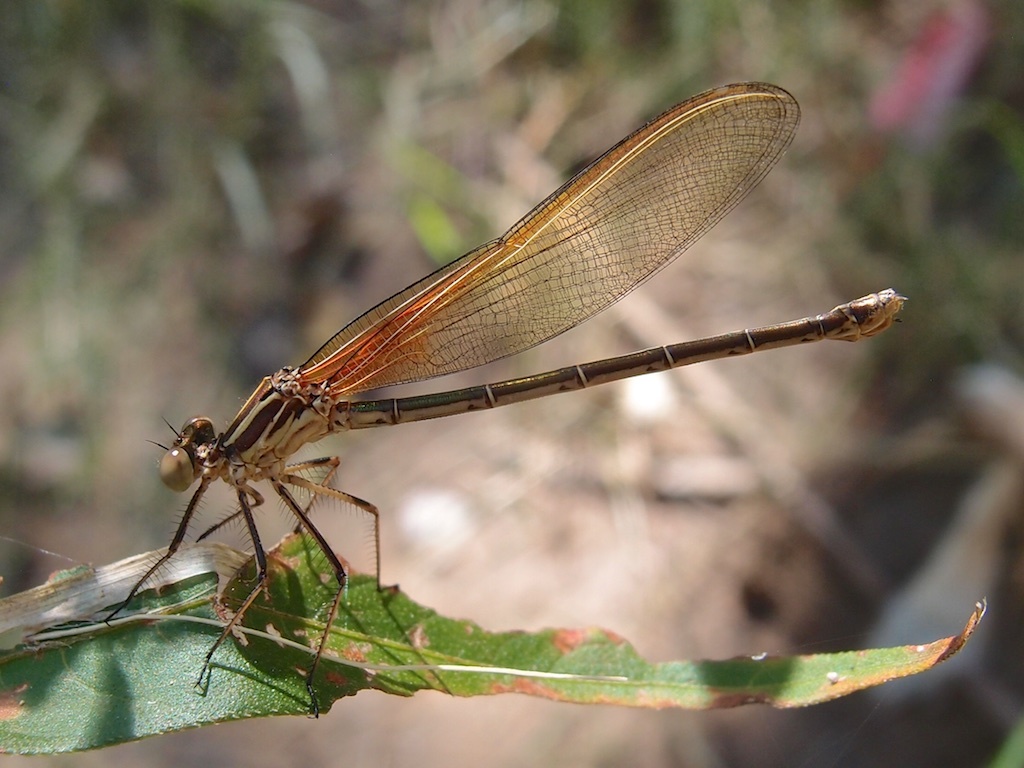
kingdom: Animalia
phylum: Arthropoda
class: Insecta
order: Odonata
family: Calopterygidae
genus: Hetaerina
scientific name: Hetaerina americana
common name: American rubyspot
